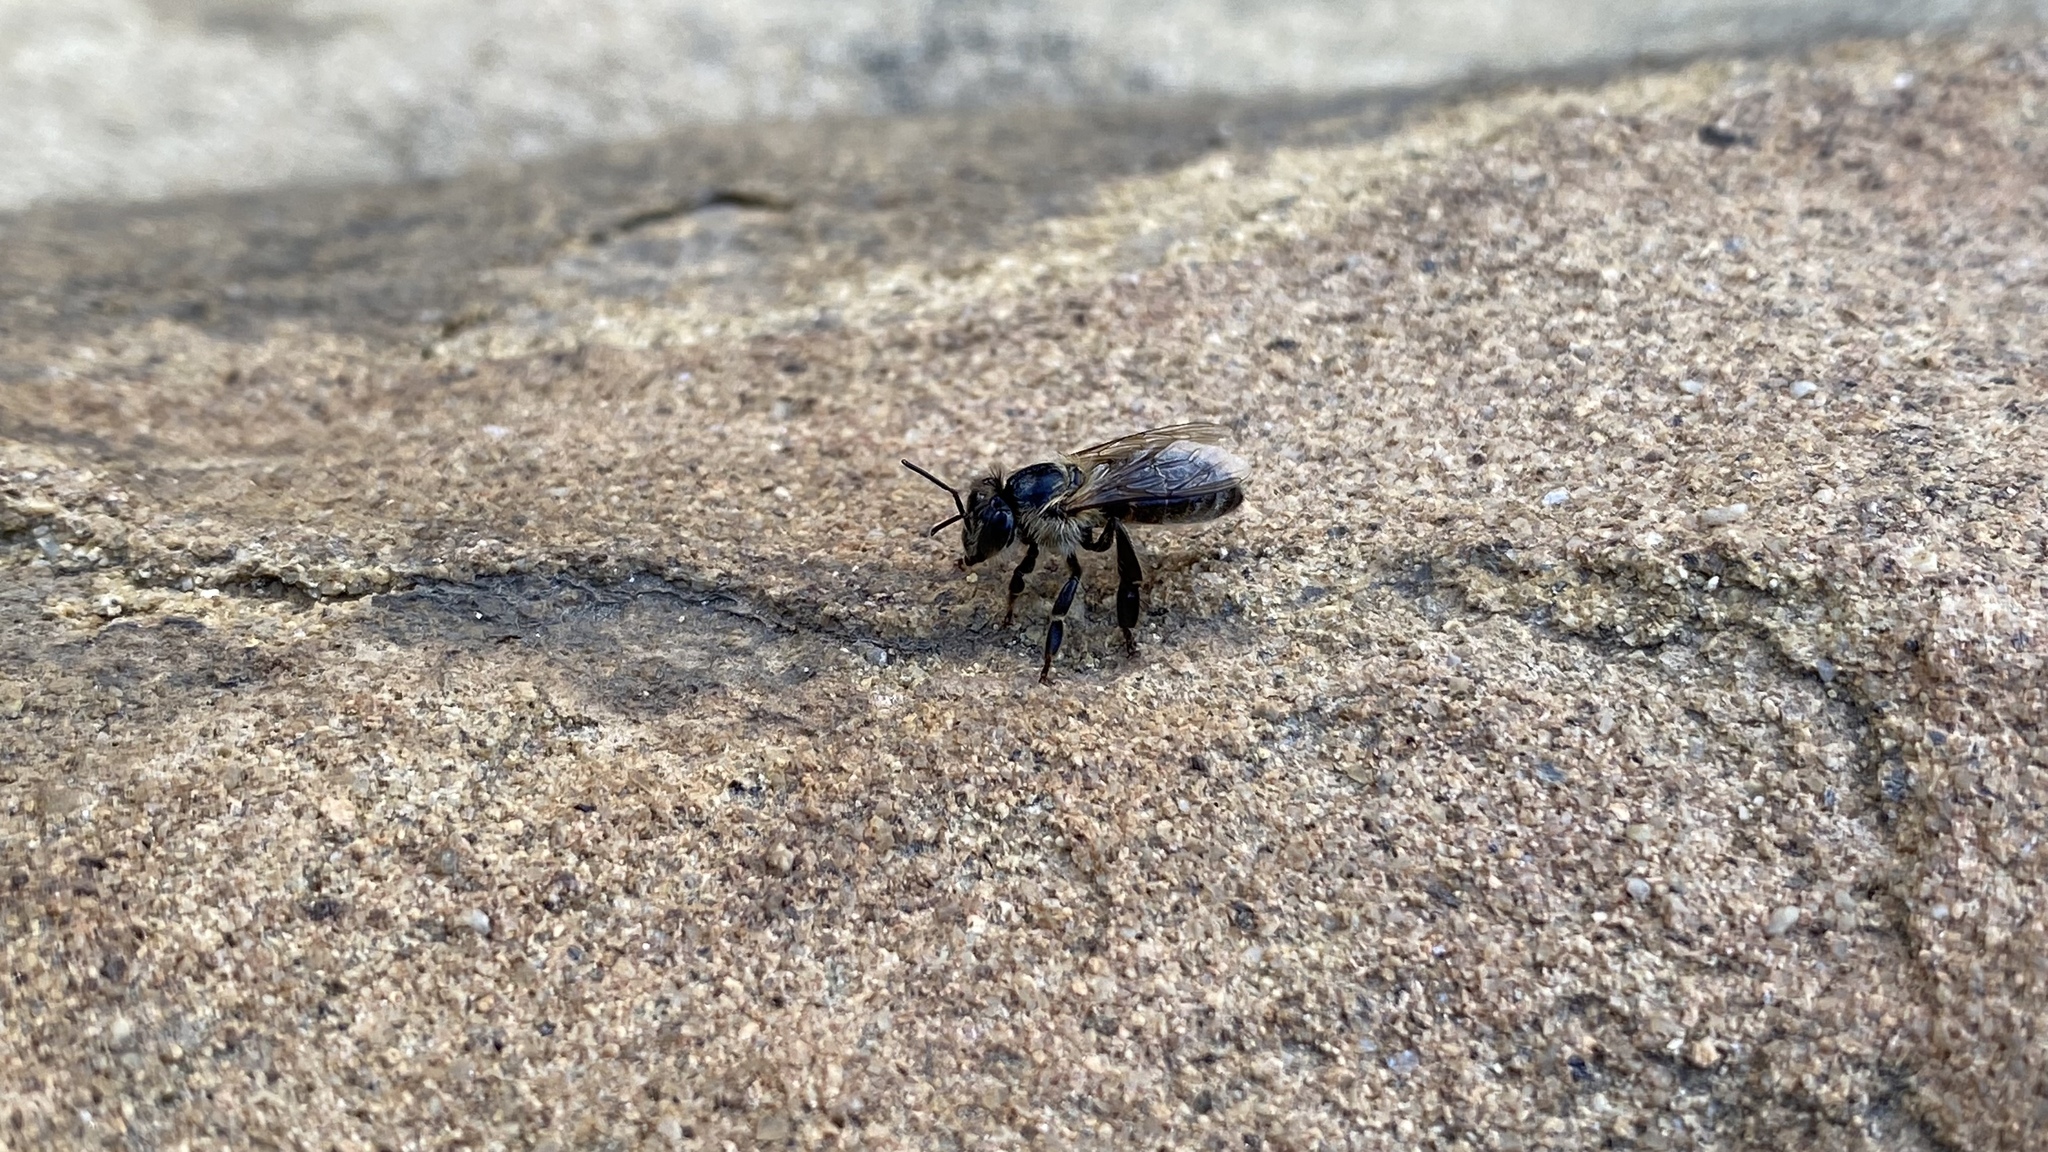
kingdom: Animalia
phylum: Arthropoda
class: Insecta
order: Hymenoptera
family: Apidae
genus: Apis
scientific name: Apis mellifera
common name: Honey bee
